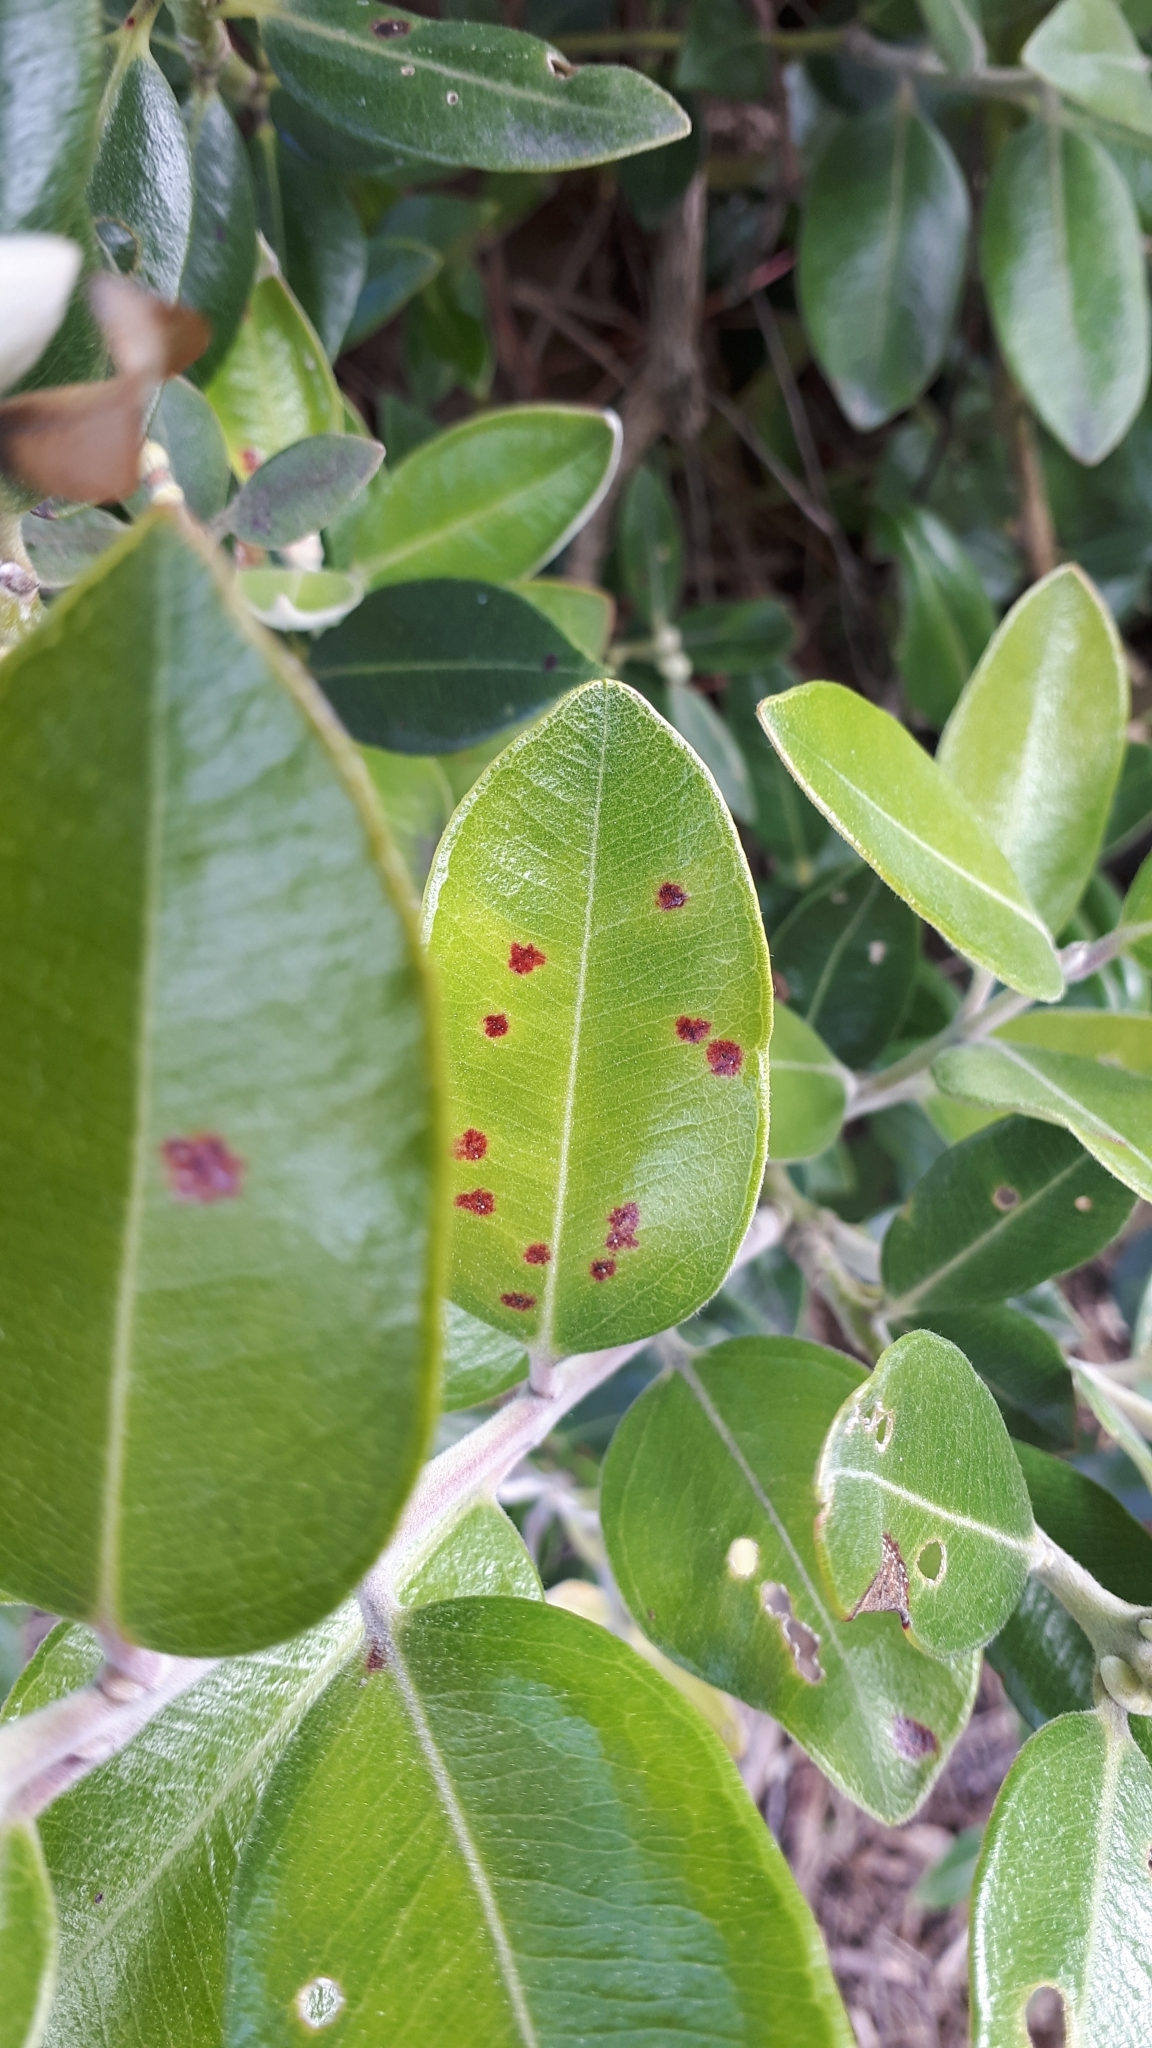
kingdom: Fungi
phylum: Basidiomycota
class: Pucciniomycetes
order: Pucciniales
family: Sphaerophragmiaceae
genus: Austropuccinia
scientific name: Austropuccinia psidii
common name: Myrtle rust
